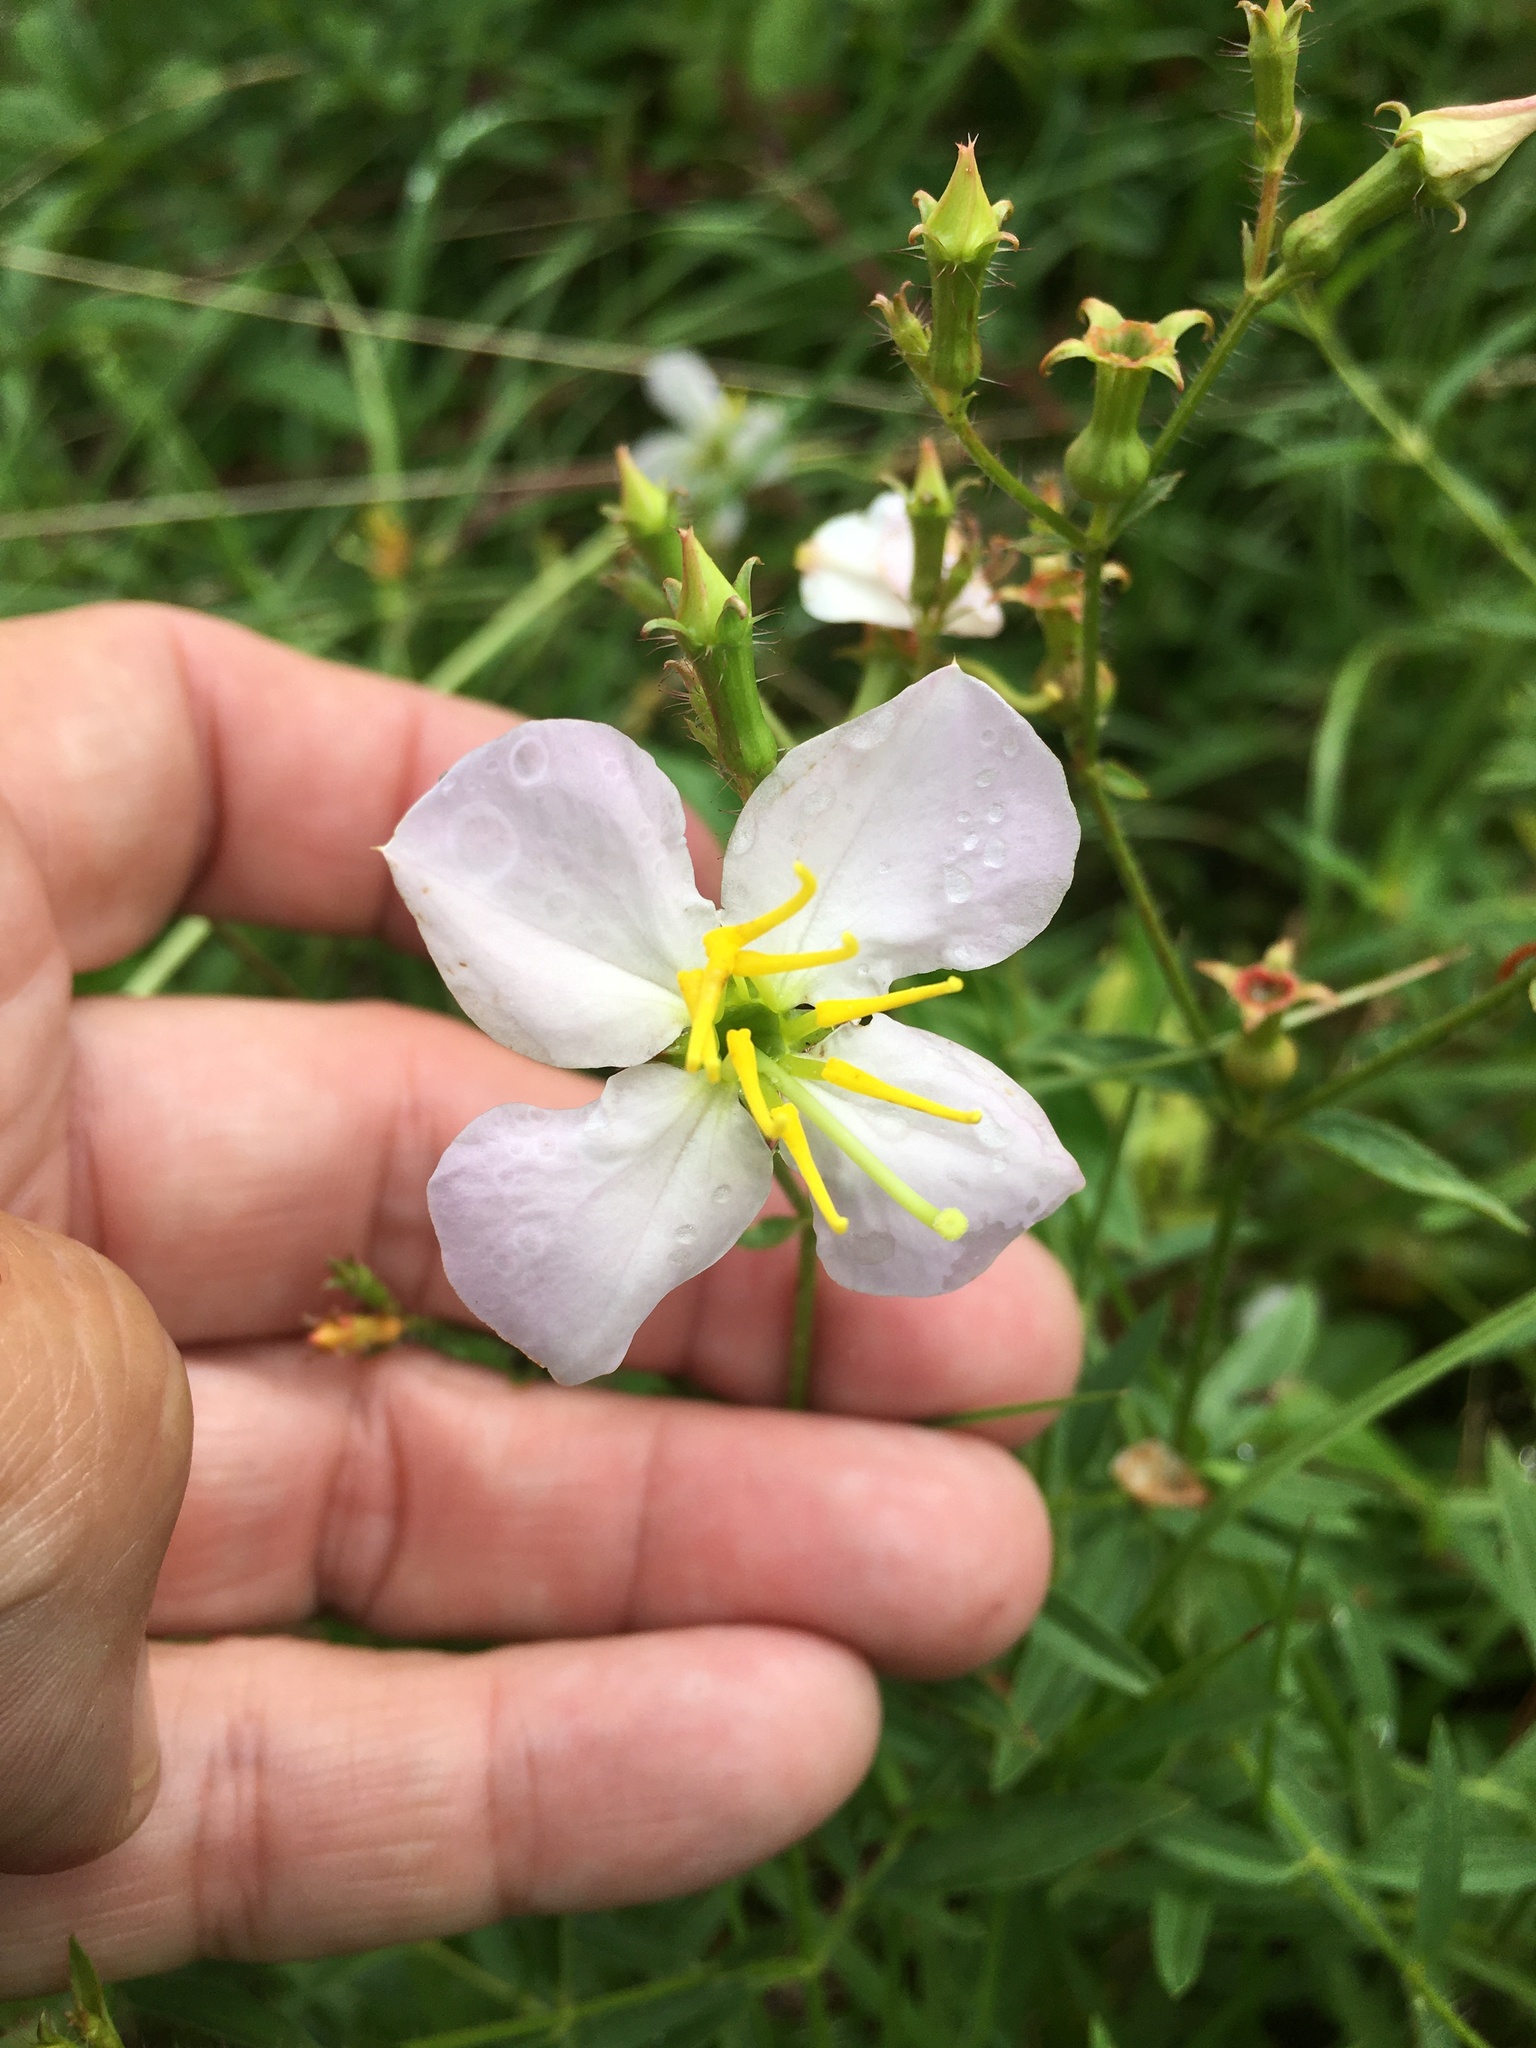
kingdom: Plantae
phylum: Tracheophyta
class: Magnoliopsida
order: Myrtales
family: Melastomataceae
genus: Rhexia
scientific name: Rhexia mariana
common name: Dull meadow-pitcher
